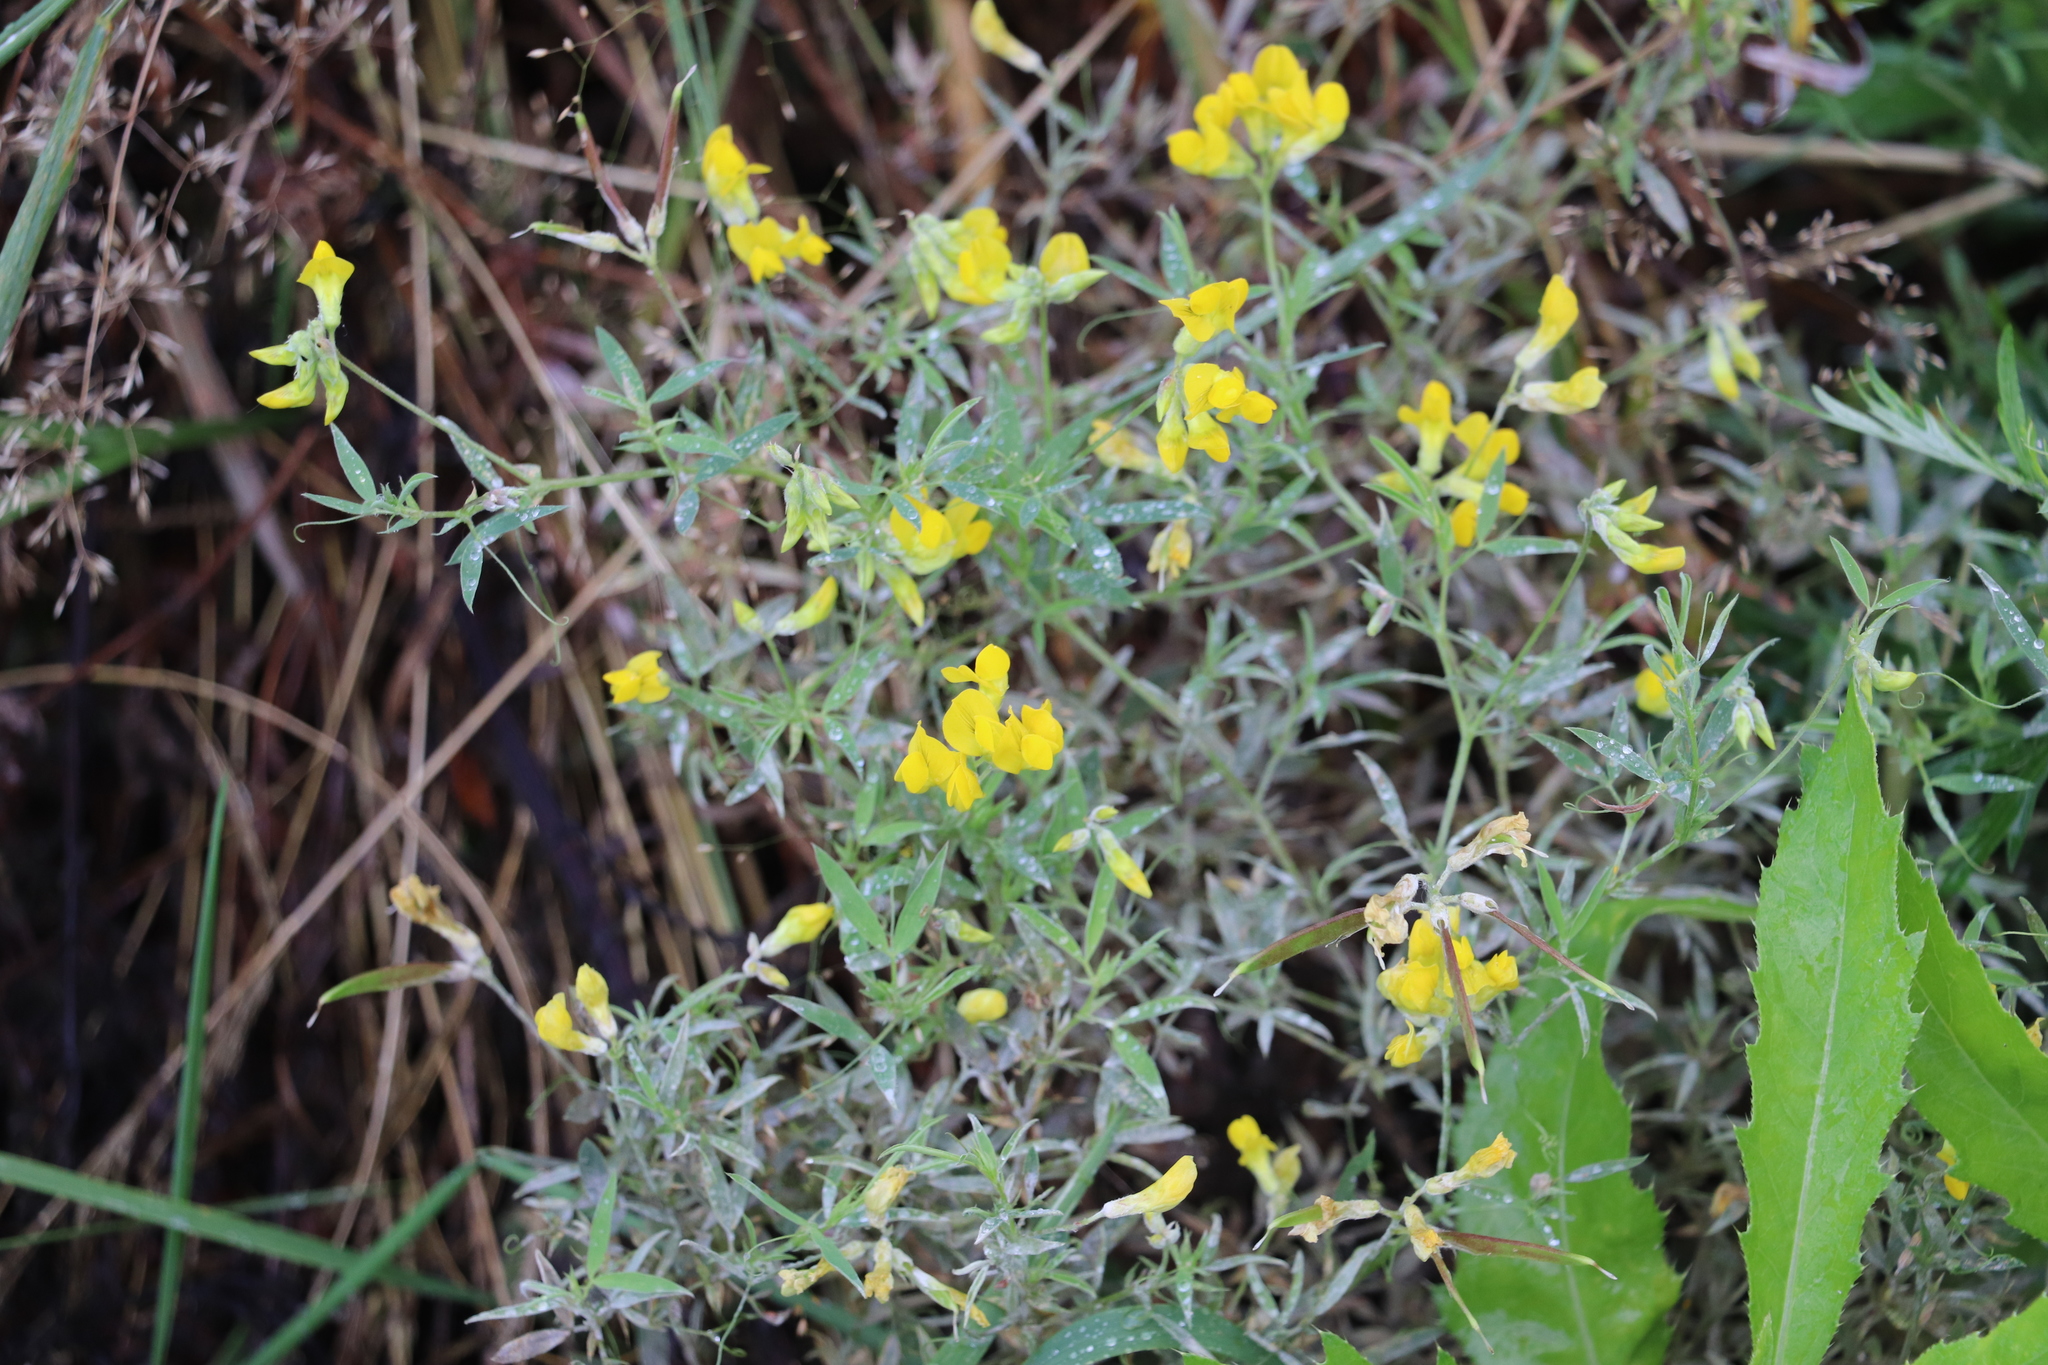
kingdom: Plantae
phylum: Tracheophyta
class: Magnoliopsida
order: Fabales
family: Fabaceae
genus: Lathyrus
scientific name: Lathyrus pratensis
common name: Meadow vetchling
